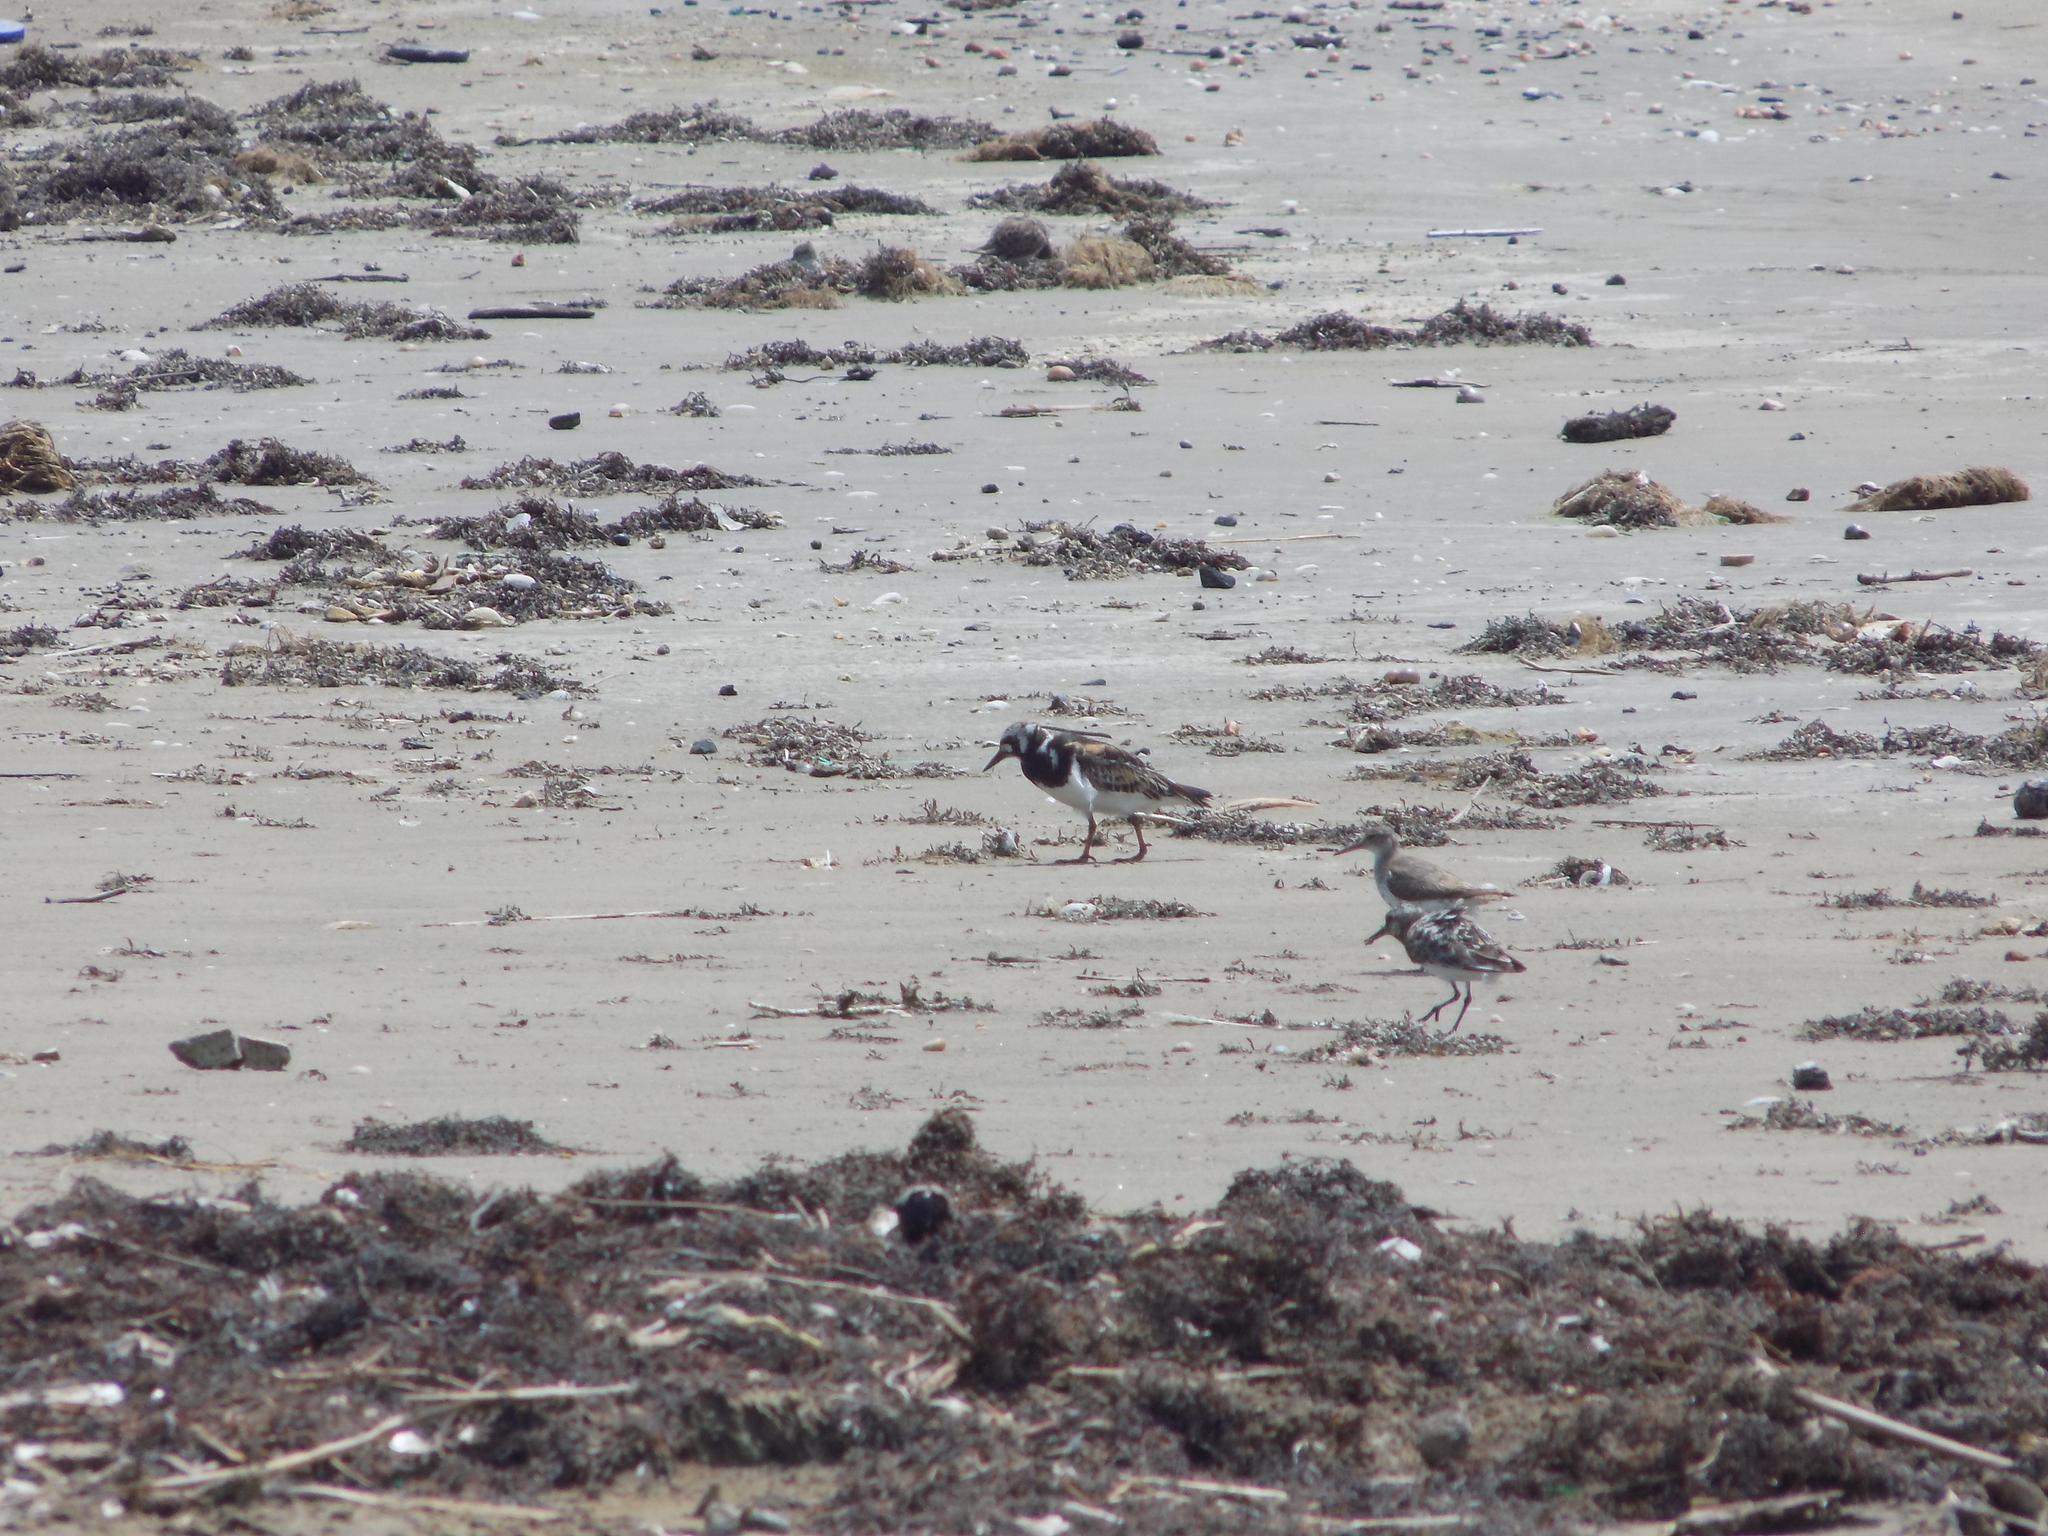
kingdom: Animalia
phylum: Chordata
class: Aves
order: Charadriiformes
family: Scolopacidae
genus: Arenaria
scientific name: Arenaria interpres
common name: Ruddy turnstone
